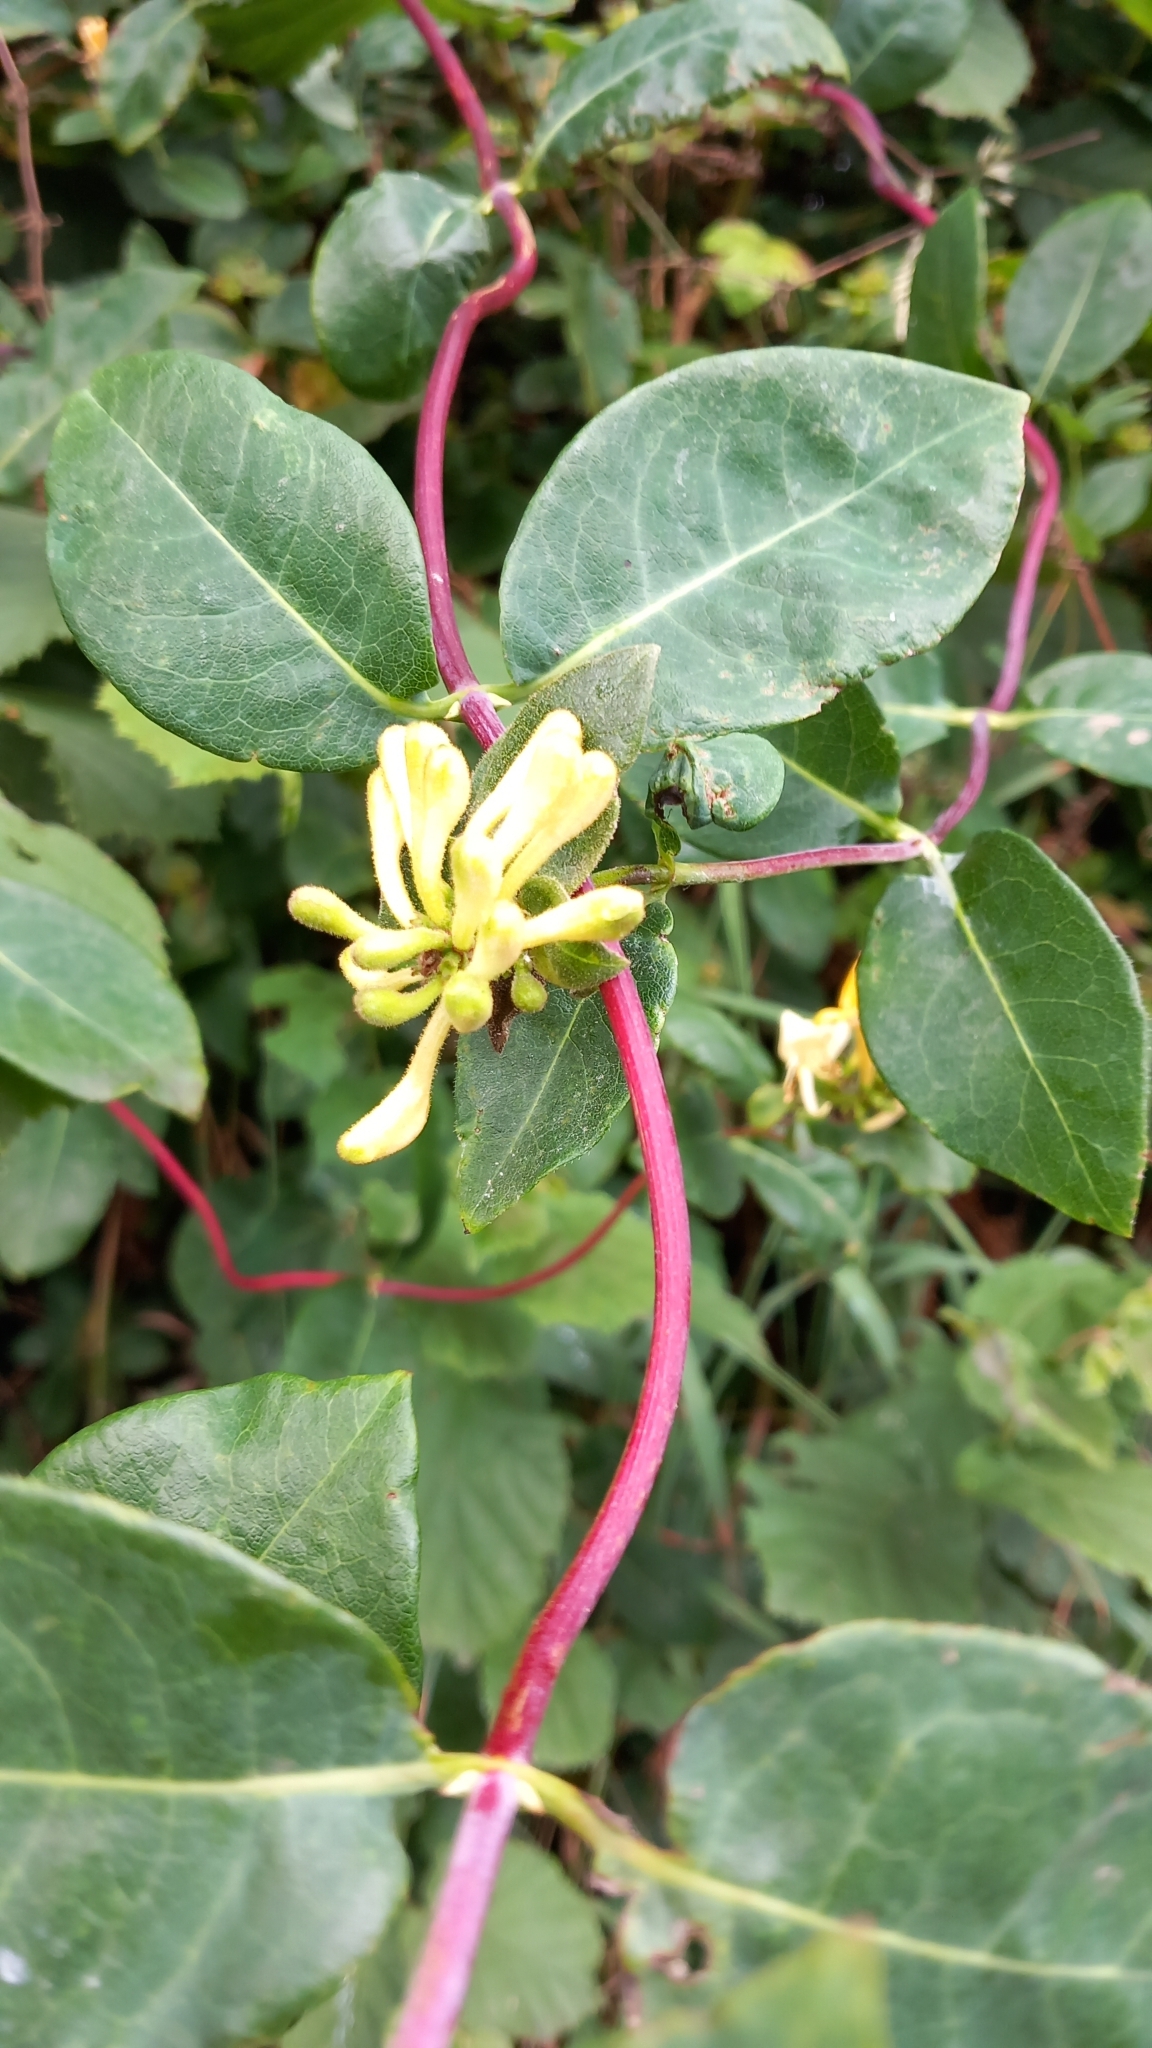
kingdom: Plantae
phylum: Tracheophyta
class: Magnoliopsida
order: Dipsacales
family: Caprifoliaceae
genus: Lonicera
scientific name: Lonicera periclymenum
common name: European honeysuckle
